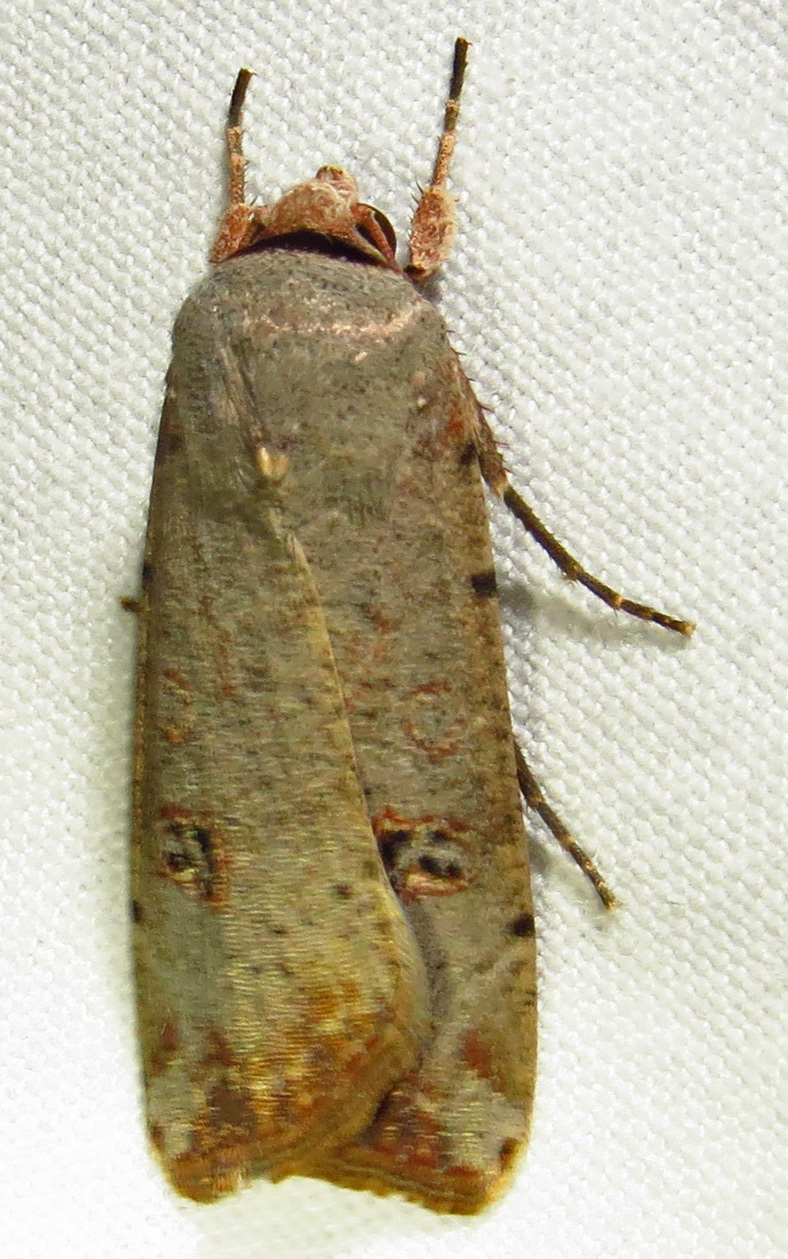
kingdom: Animalia
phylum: Arthropoda
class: Insecta
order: Lepidoptera
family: Noctuidae
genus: Anicla
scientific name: Anicla infecta
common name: Green cutworm
